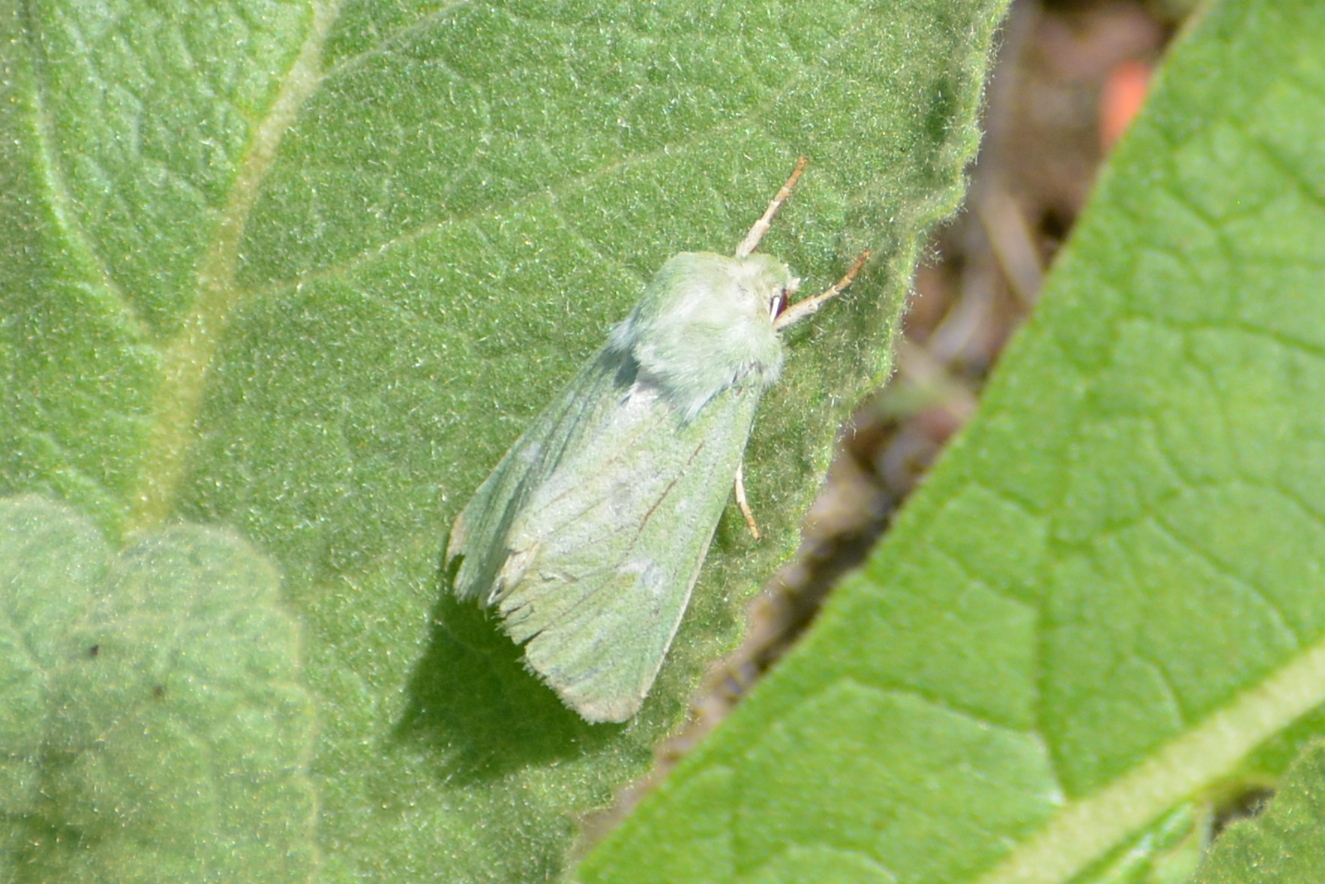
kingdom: Animalia
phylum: Arthropoda
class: Insecta
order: Lepidoptera
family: Noctuidae
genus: Calamia
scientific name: Calamia tridens
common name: Burren green
